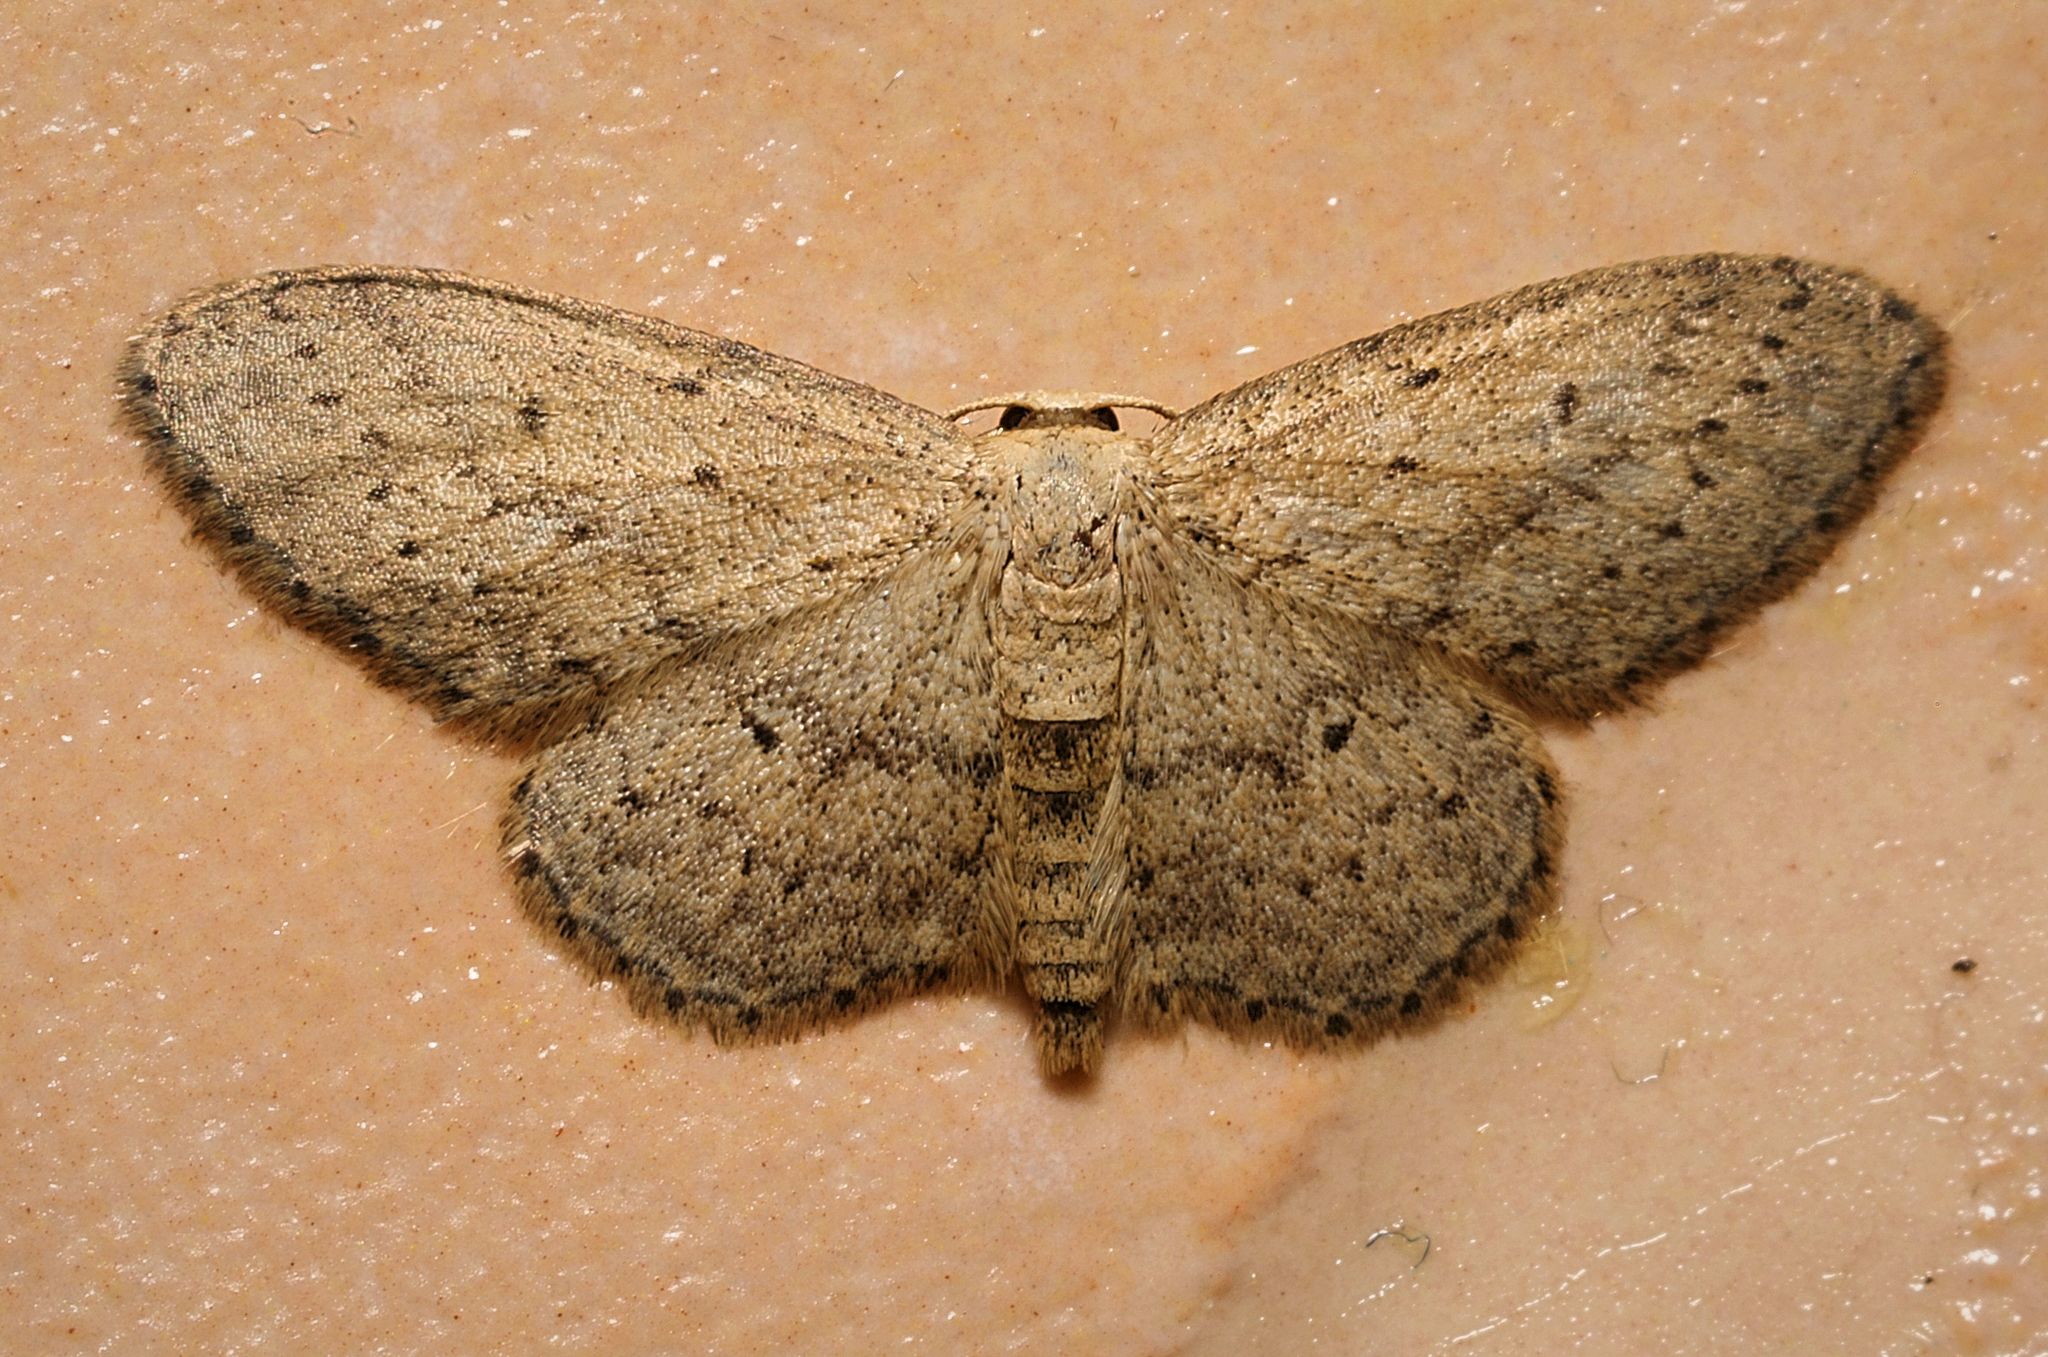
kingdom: Animalia
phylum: Arthropoda
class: Insecta
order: Lepidoptera
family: Geometridae
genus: Idaea
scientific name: Idaea seriata
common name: Small dusty wave
